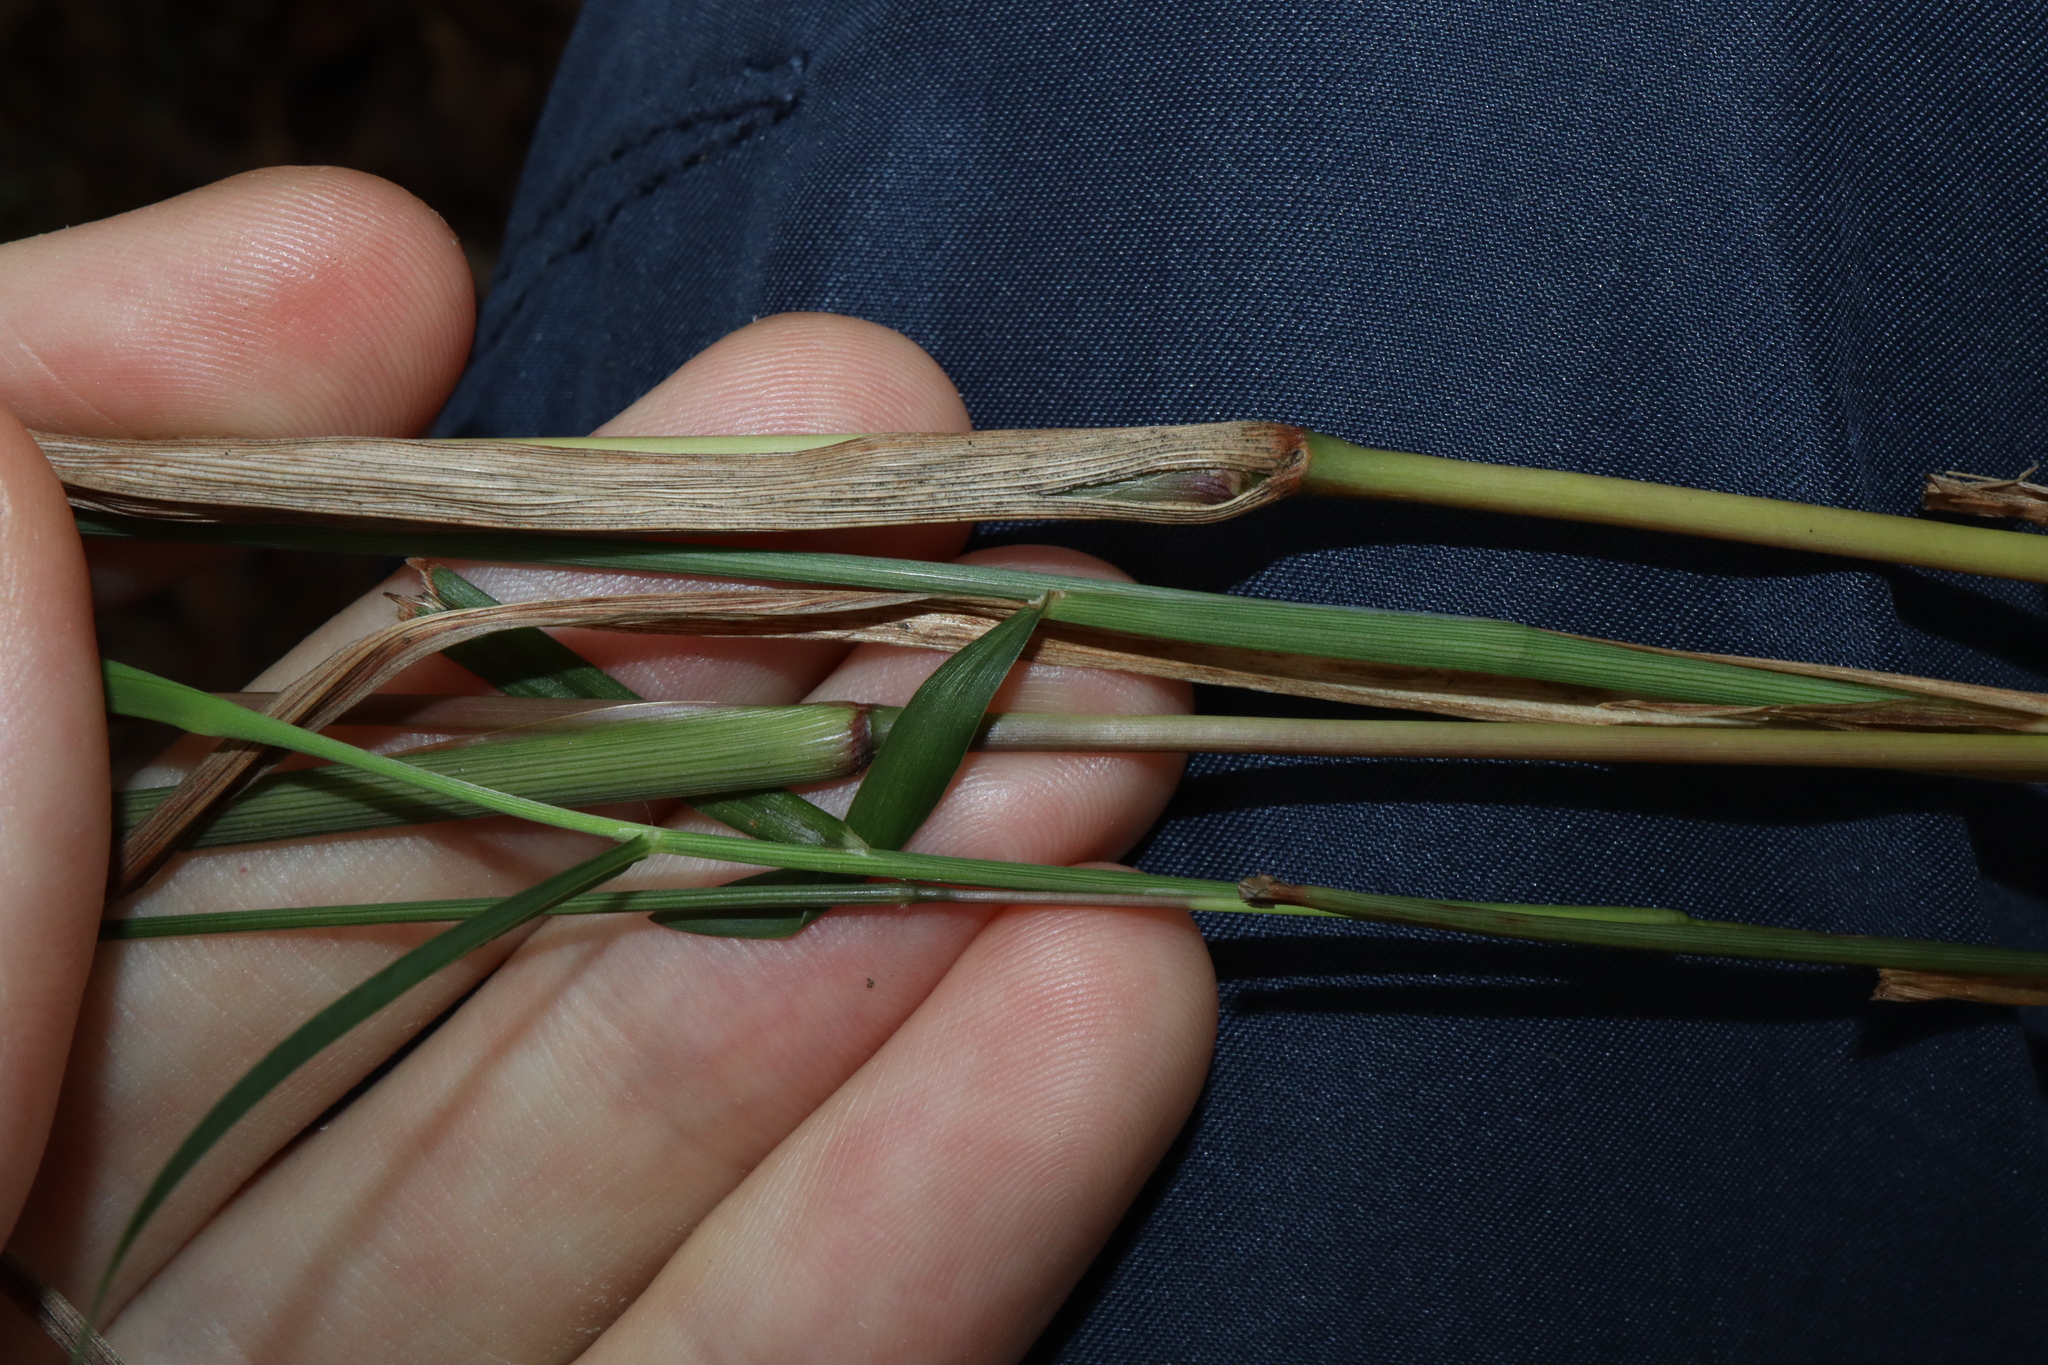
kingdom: Plantae
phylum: Tracheophyta
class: Liliopsida
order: Poales
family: Poaceae
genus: Digitaria
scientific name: Digitaria parviflora
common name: Small-flower finger grass
